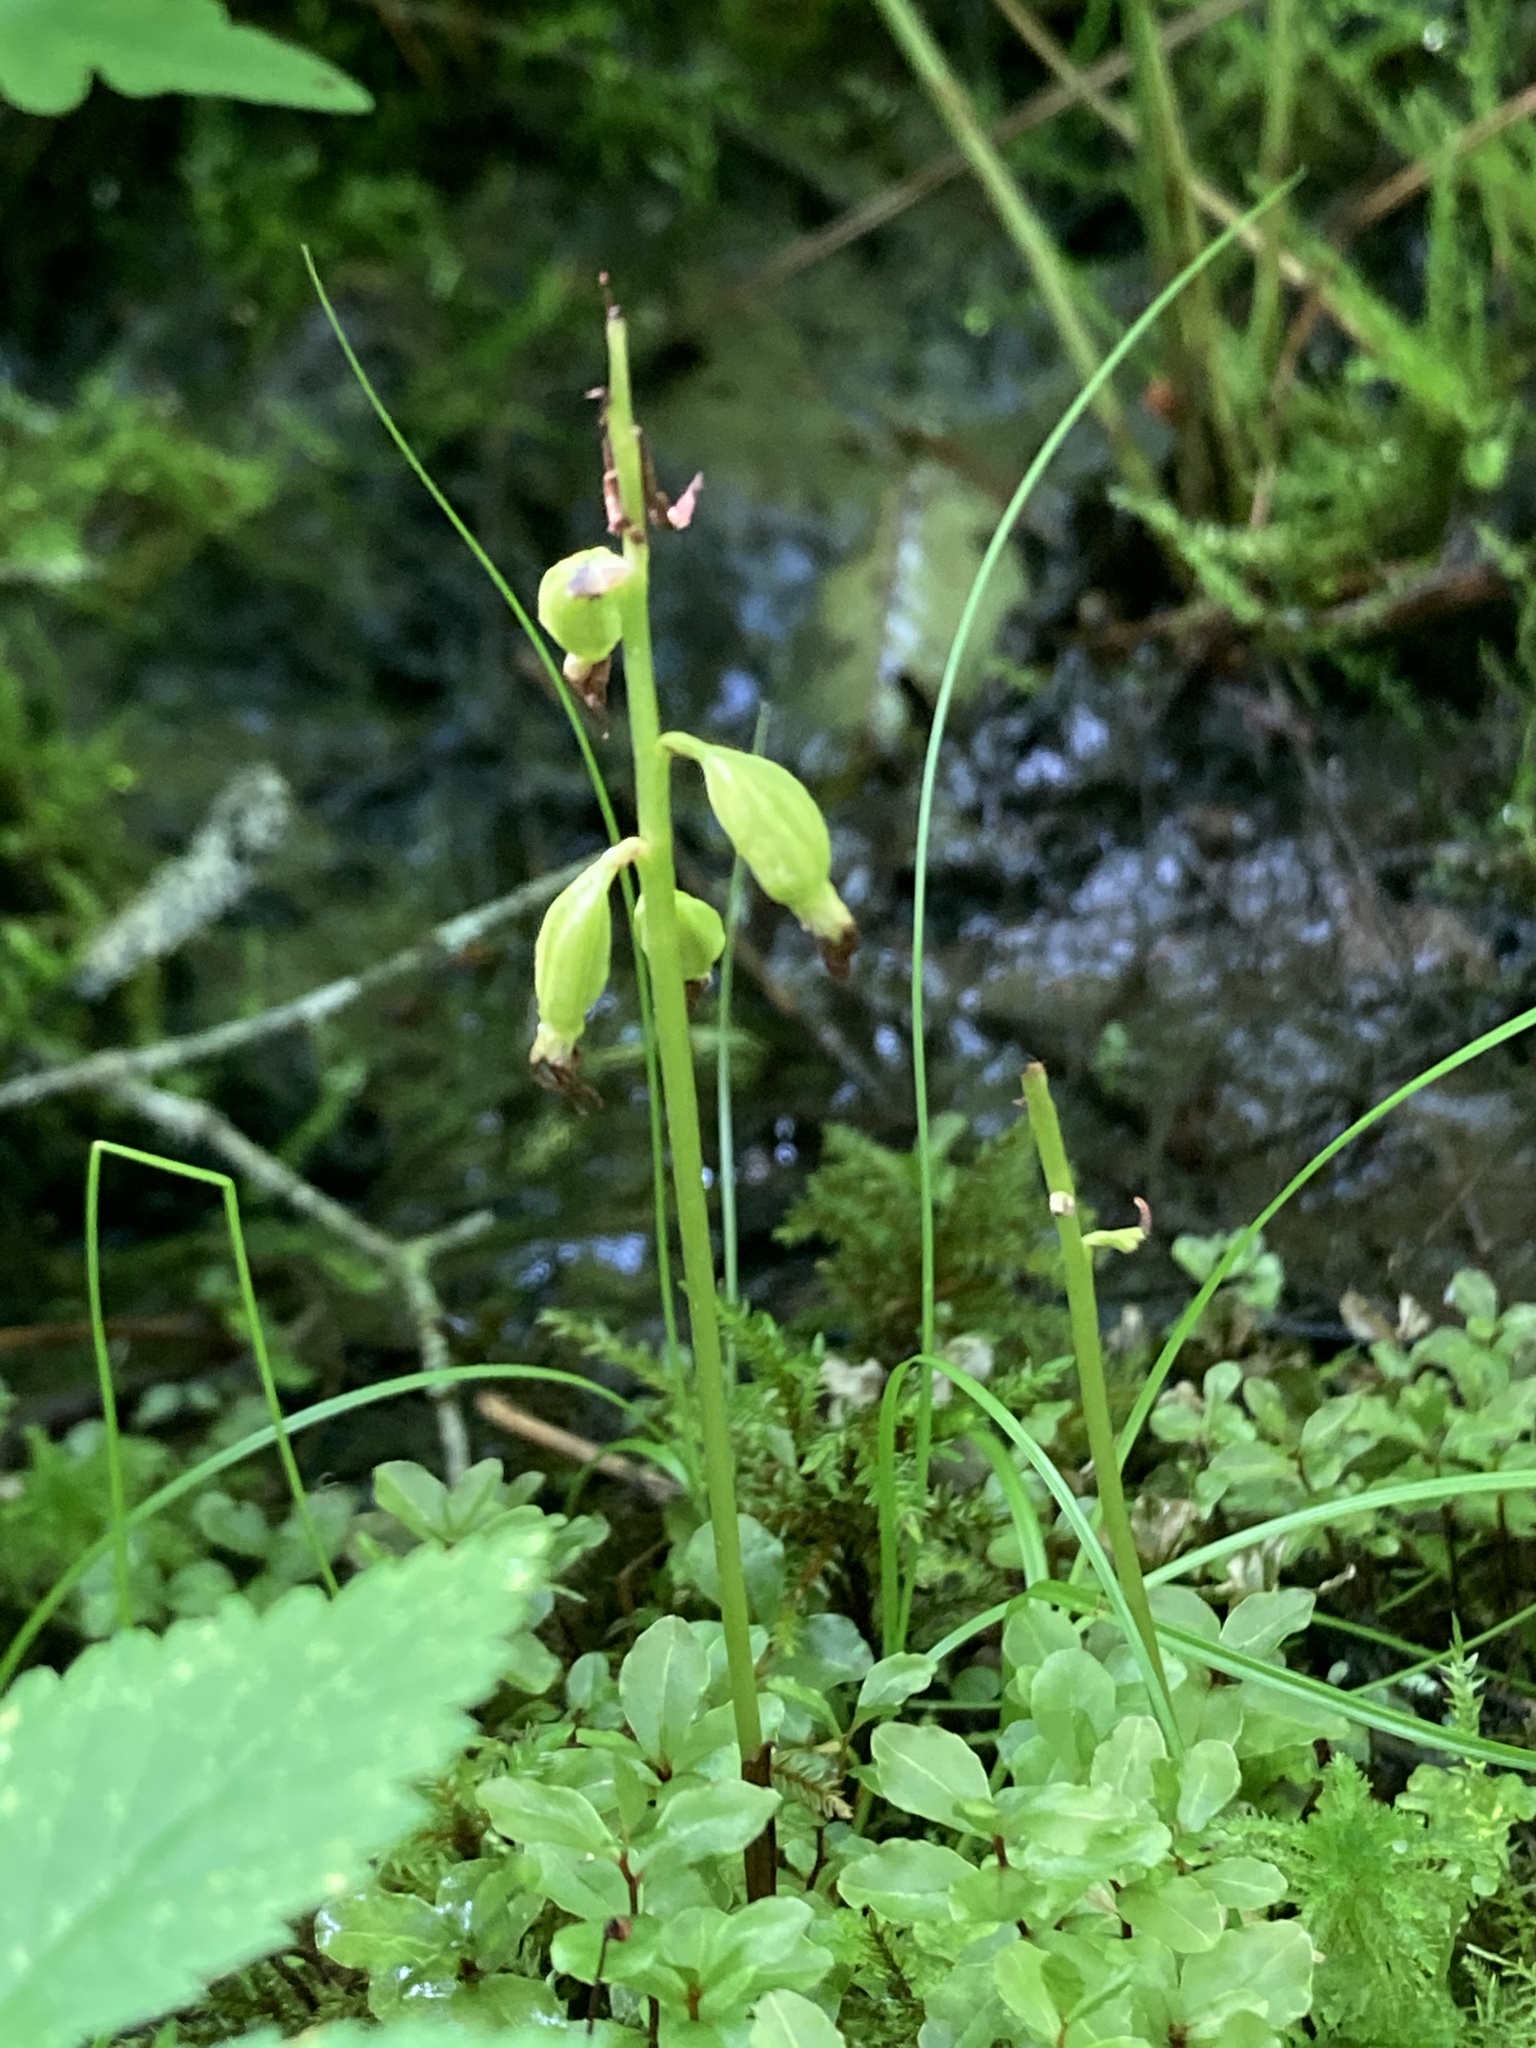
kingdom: Plantae
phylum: Tracheophyta
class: Liliopsida
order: Asparagales
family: Orchidaceae
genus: Corallorhiza
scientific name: Corallorhiza trifida
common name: Yellow coralroot
